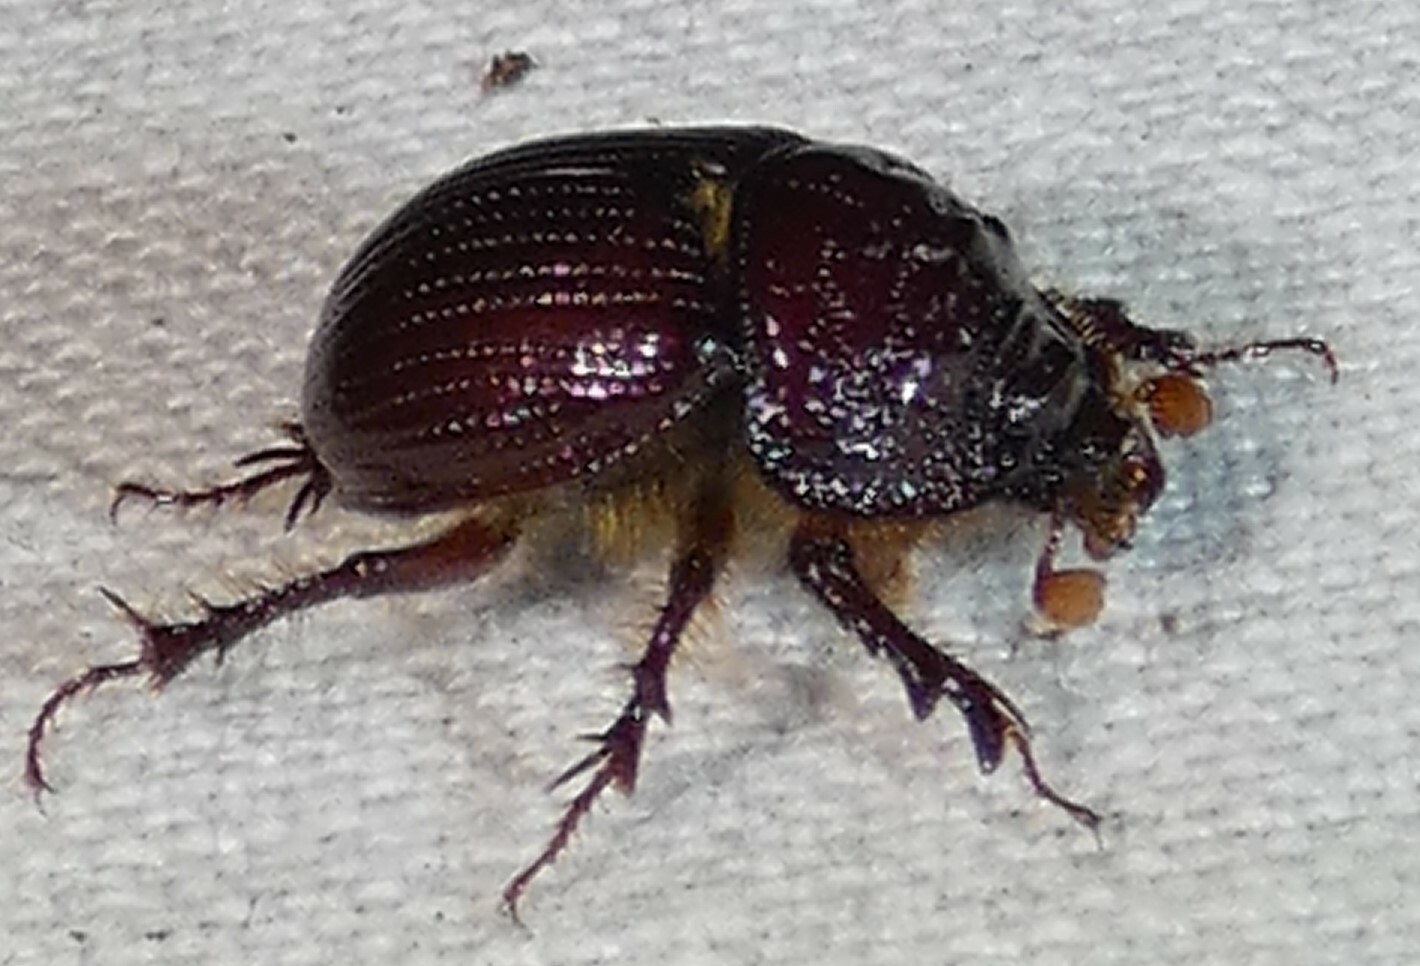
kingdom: Animalia
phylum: Arthropoda
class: Insecta
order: Coleoptera
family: Geotrupidae
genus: Eucanthus
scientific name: Eucanthus impressus
